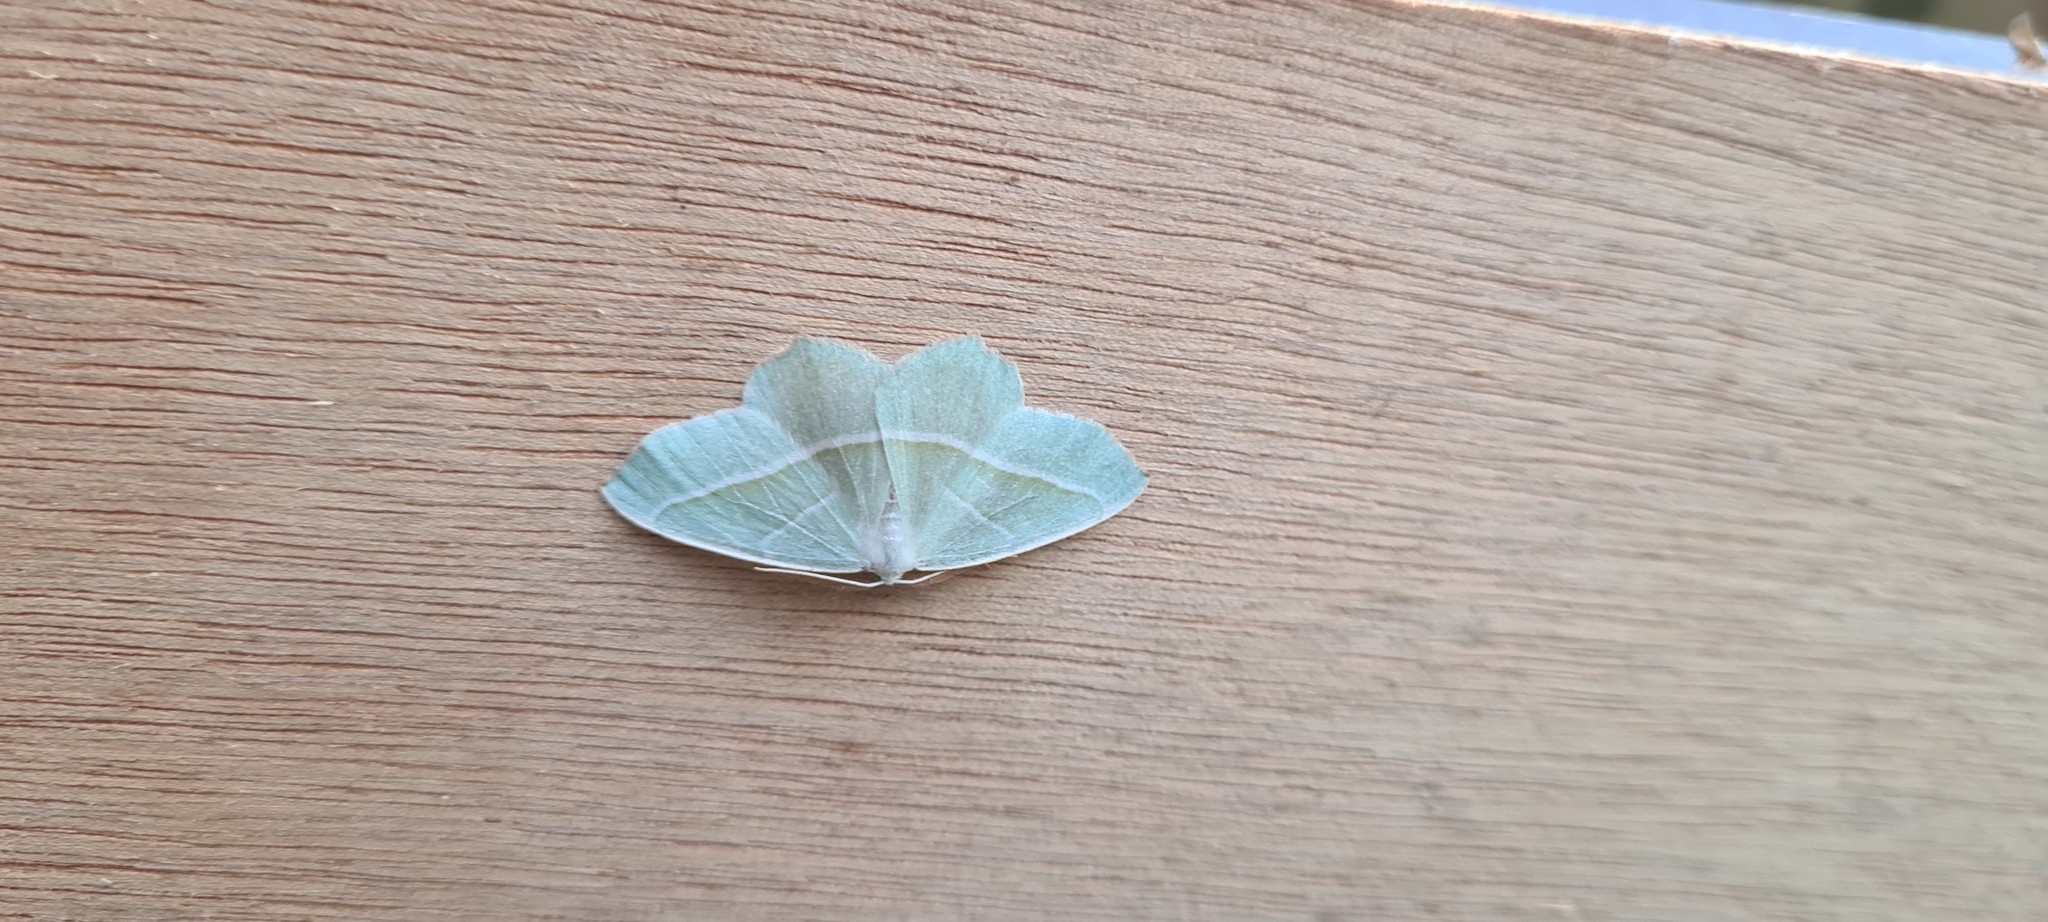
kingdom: Animalia
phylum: Arthropoda
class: Insecta
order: Lepidoptera
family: Geometridae
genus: Campaea
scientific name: Campaea margaritaria
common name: Light emerald
